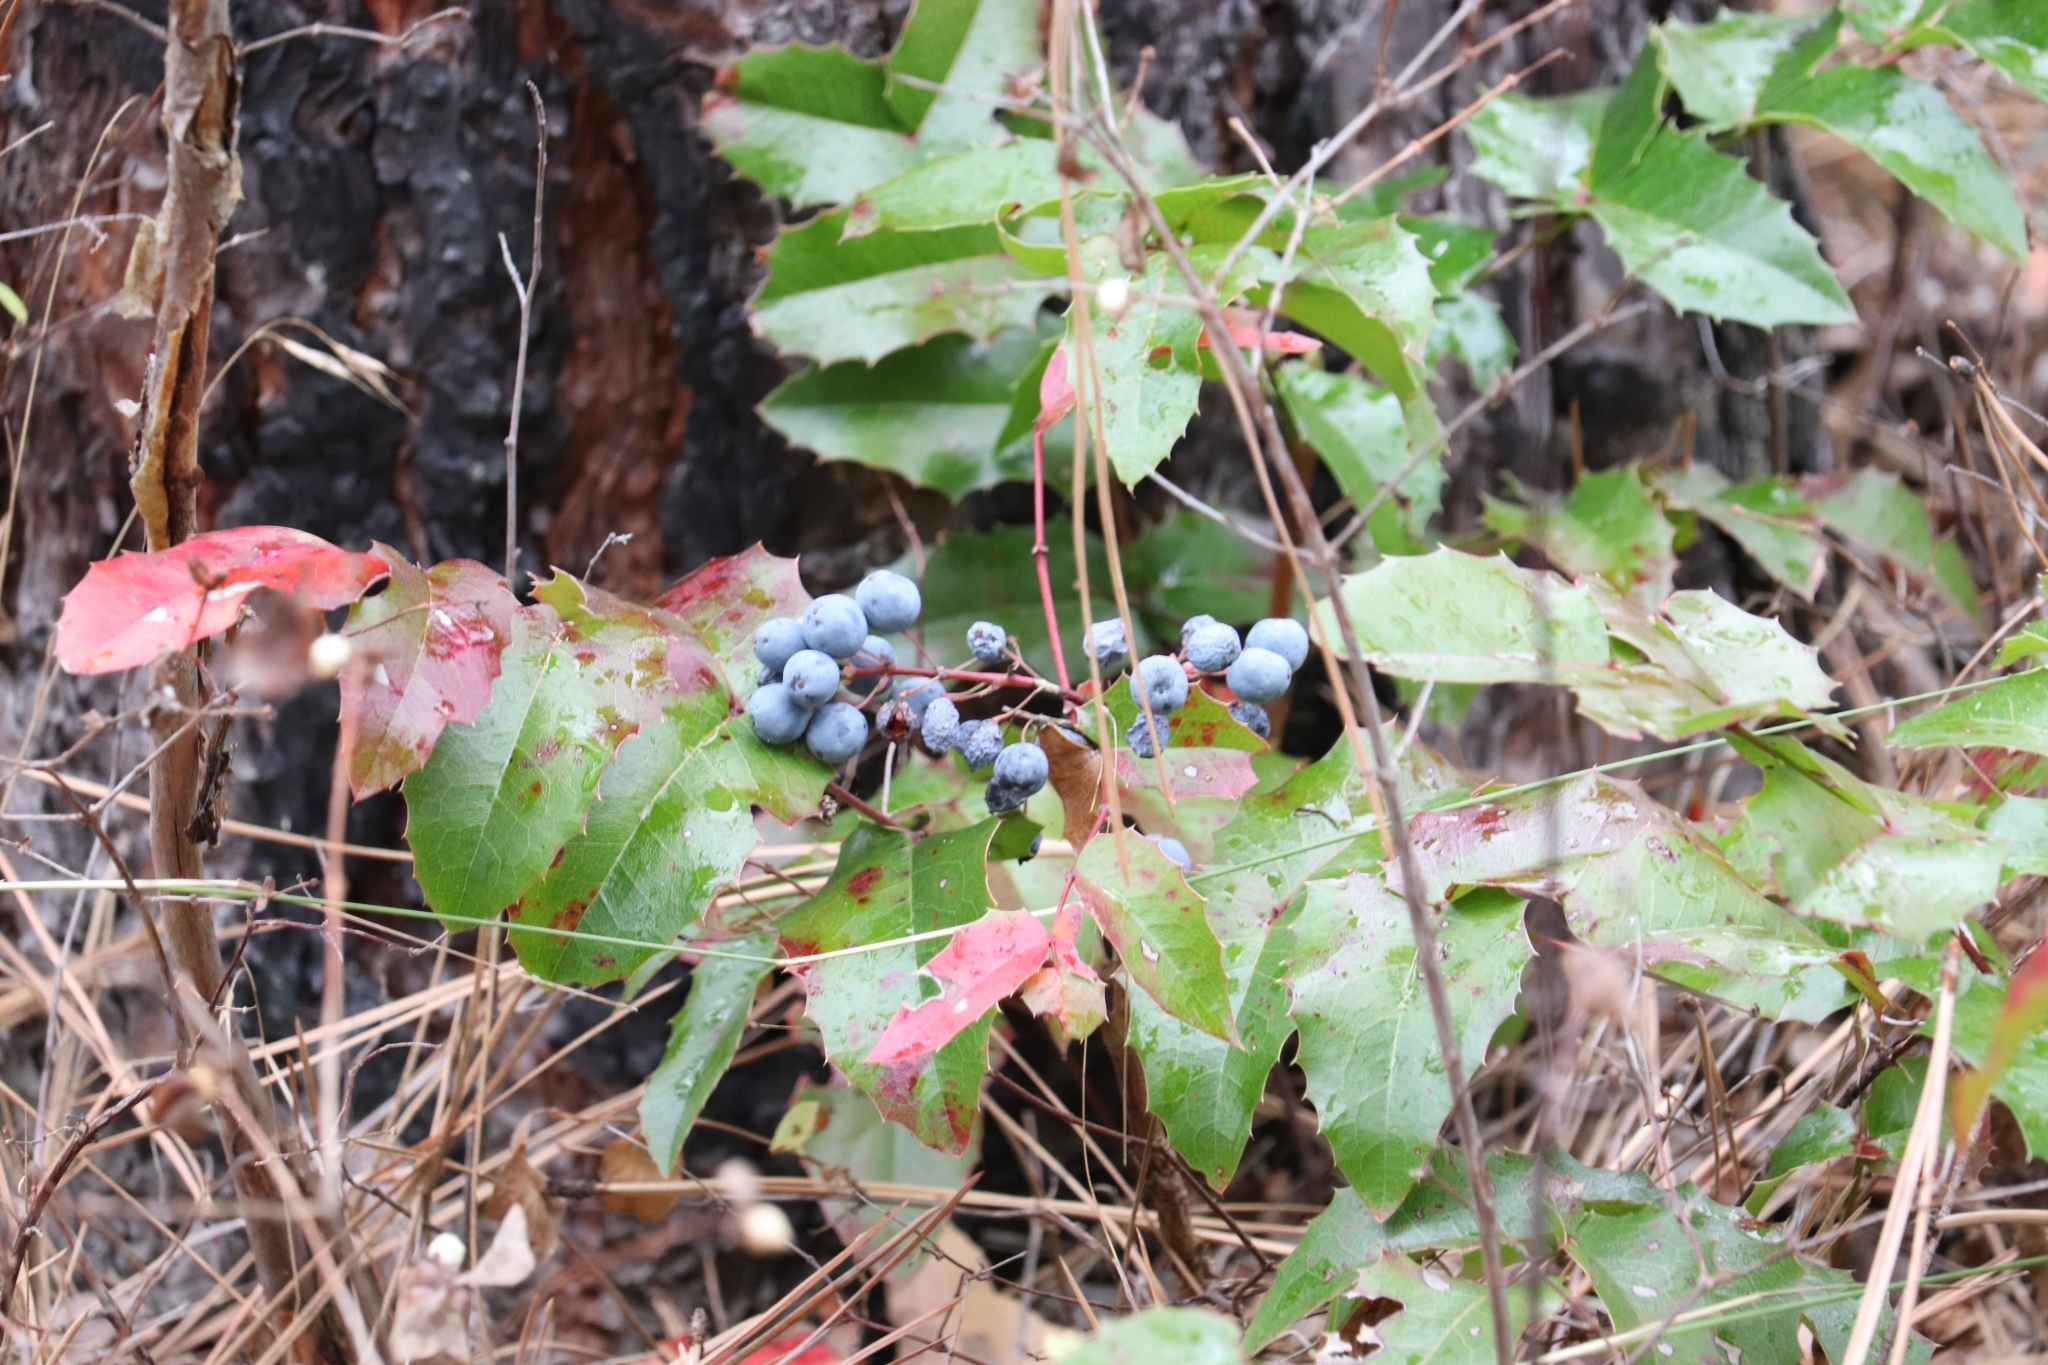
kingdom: Plantae
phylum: Tracheophyta
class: Magnoliopsida
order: Ranunculales
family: Berberidaceae
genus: Mahonia
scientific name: Mahonia aquifolium
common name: Oregon-grape
